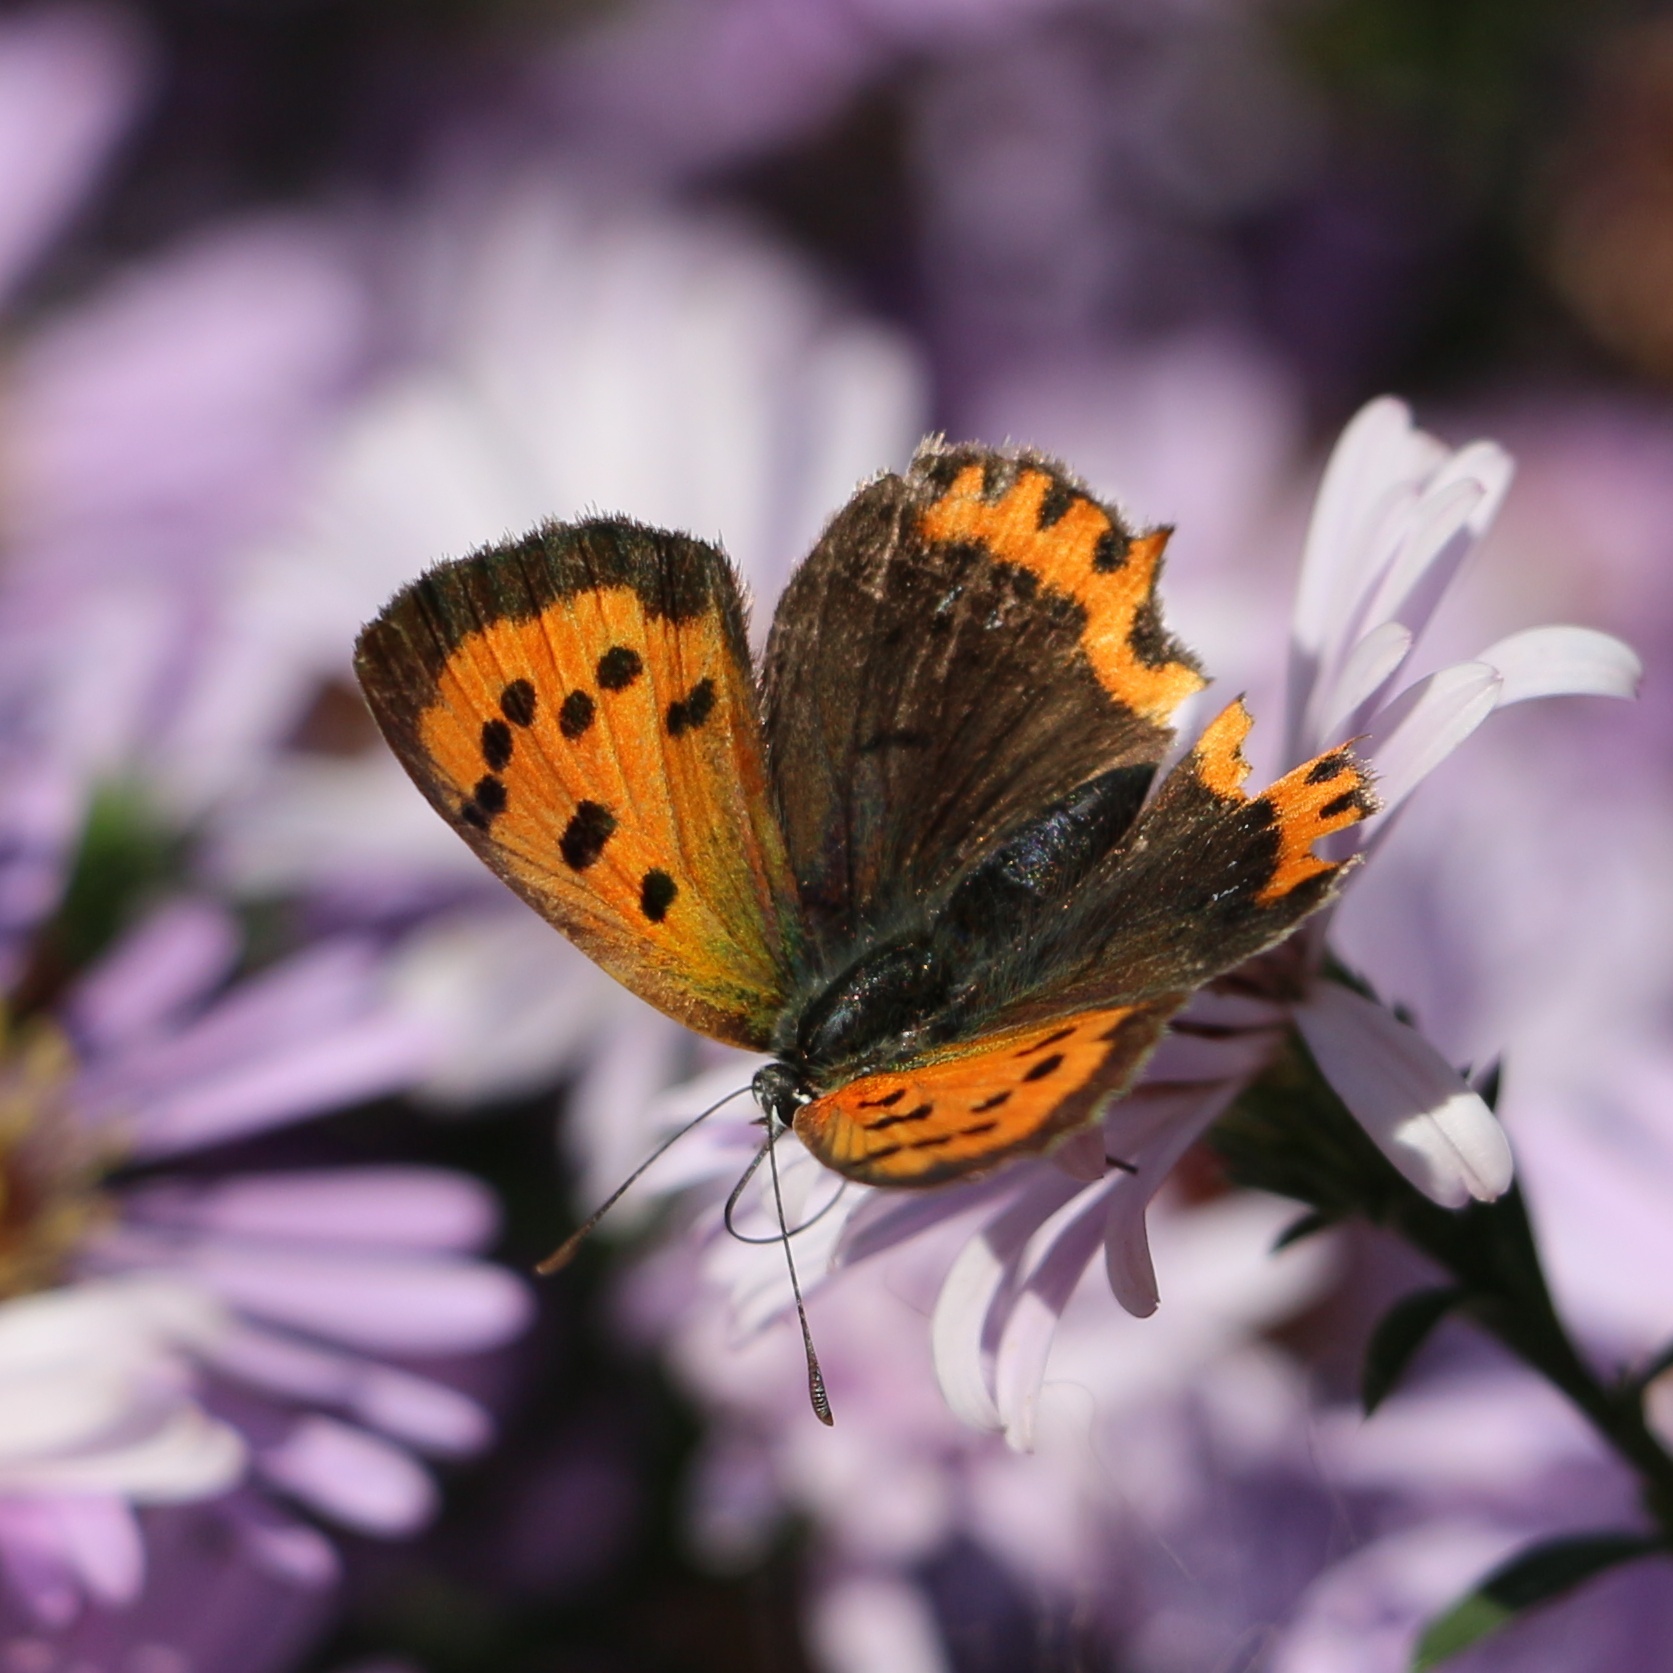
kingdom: Animalia
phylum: Arthropoda
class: Insecta
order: Lepidoptera
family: Lycaenidae
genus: Lycaena
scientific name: Lycaena phlaeas
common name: Small copper
